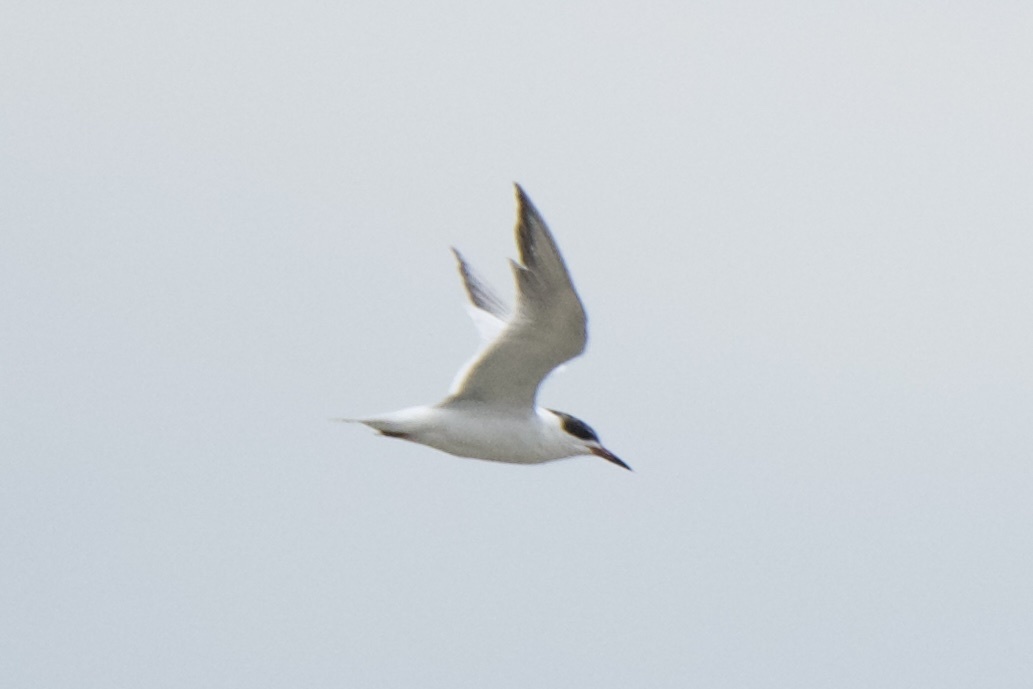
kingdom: Animalia
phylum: Chordata
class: Aves
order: Charadriiformes
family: Laridae
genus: Sterna
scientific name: Sterna forsteri
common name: Forster's tern
